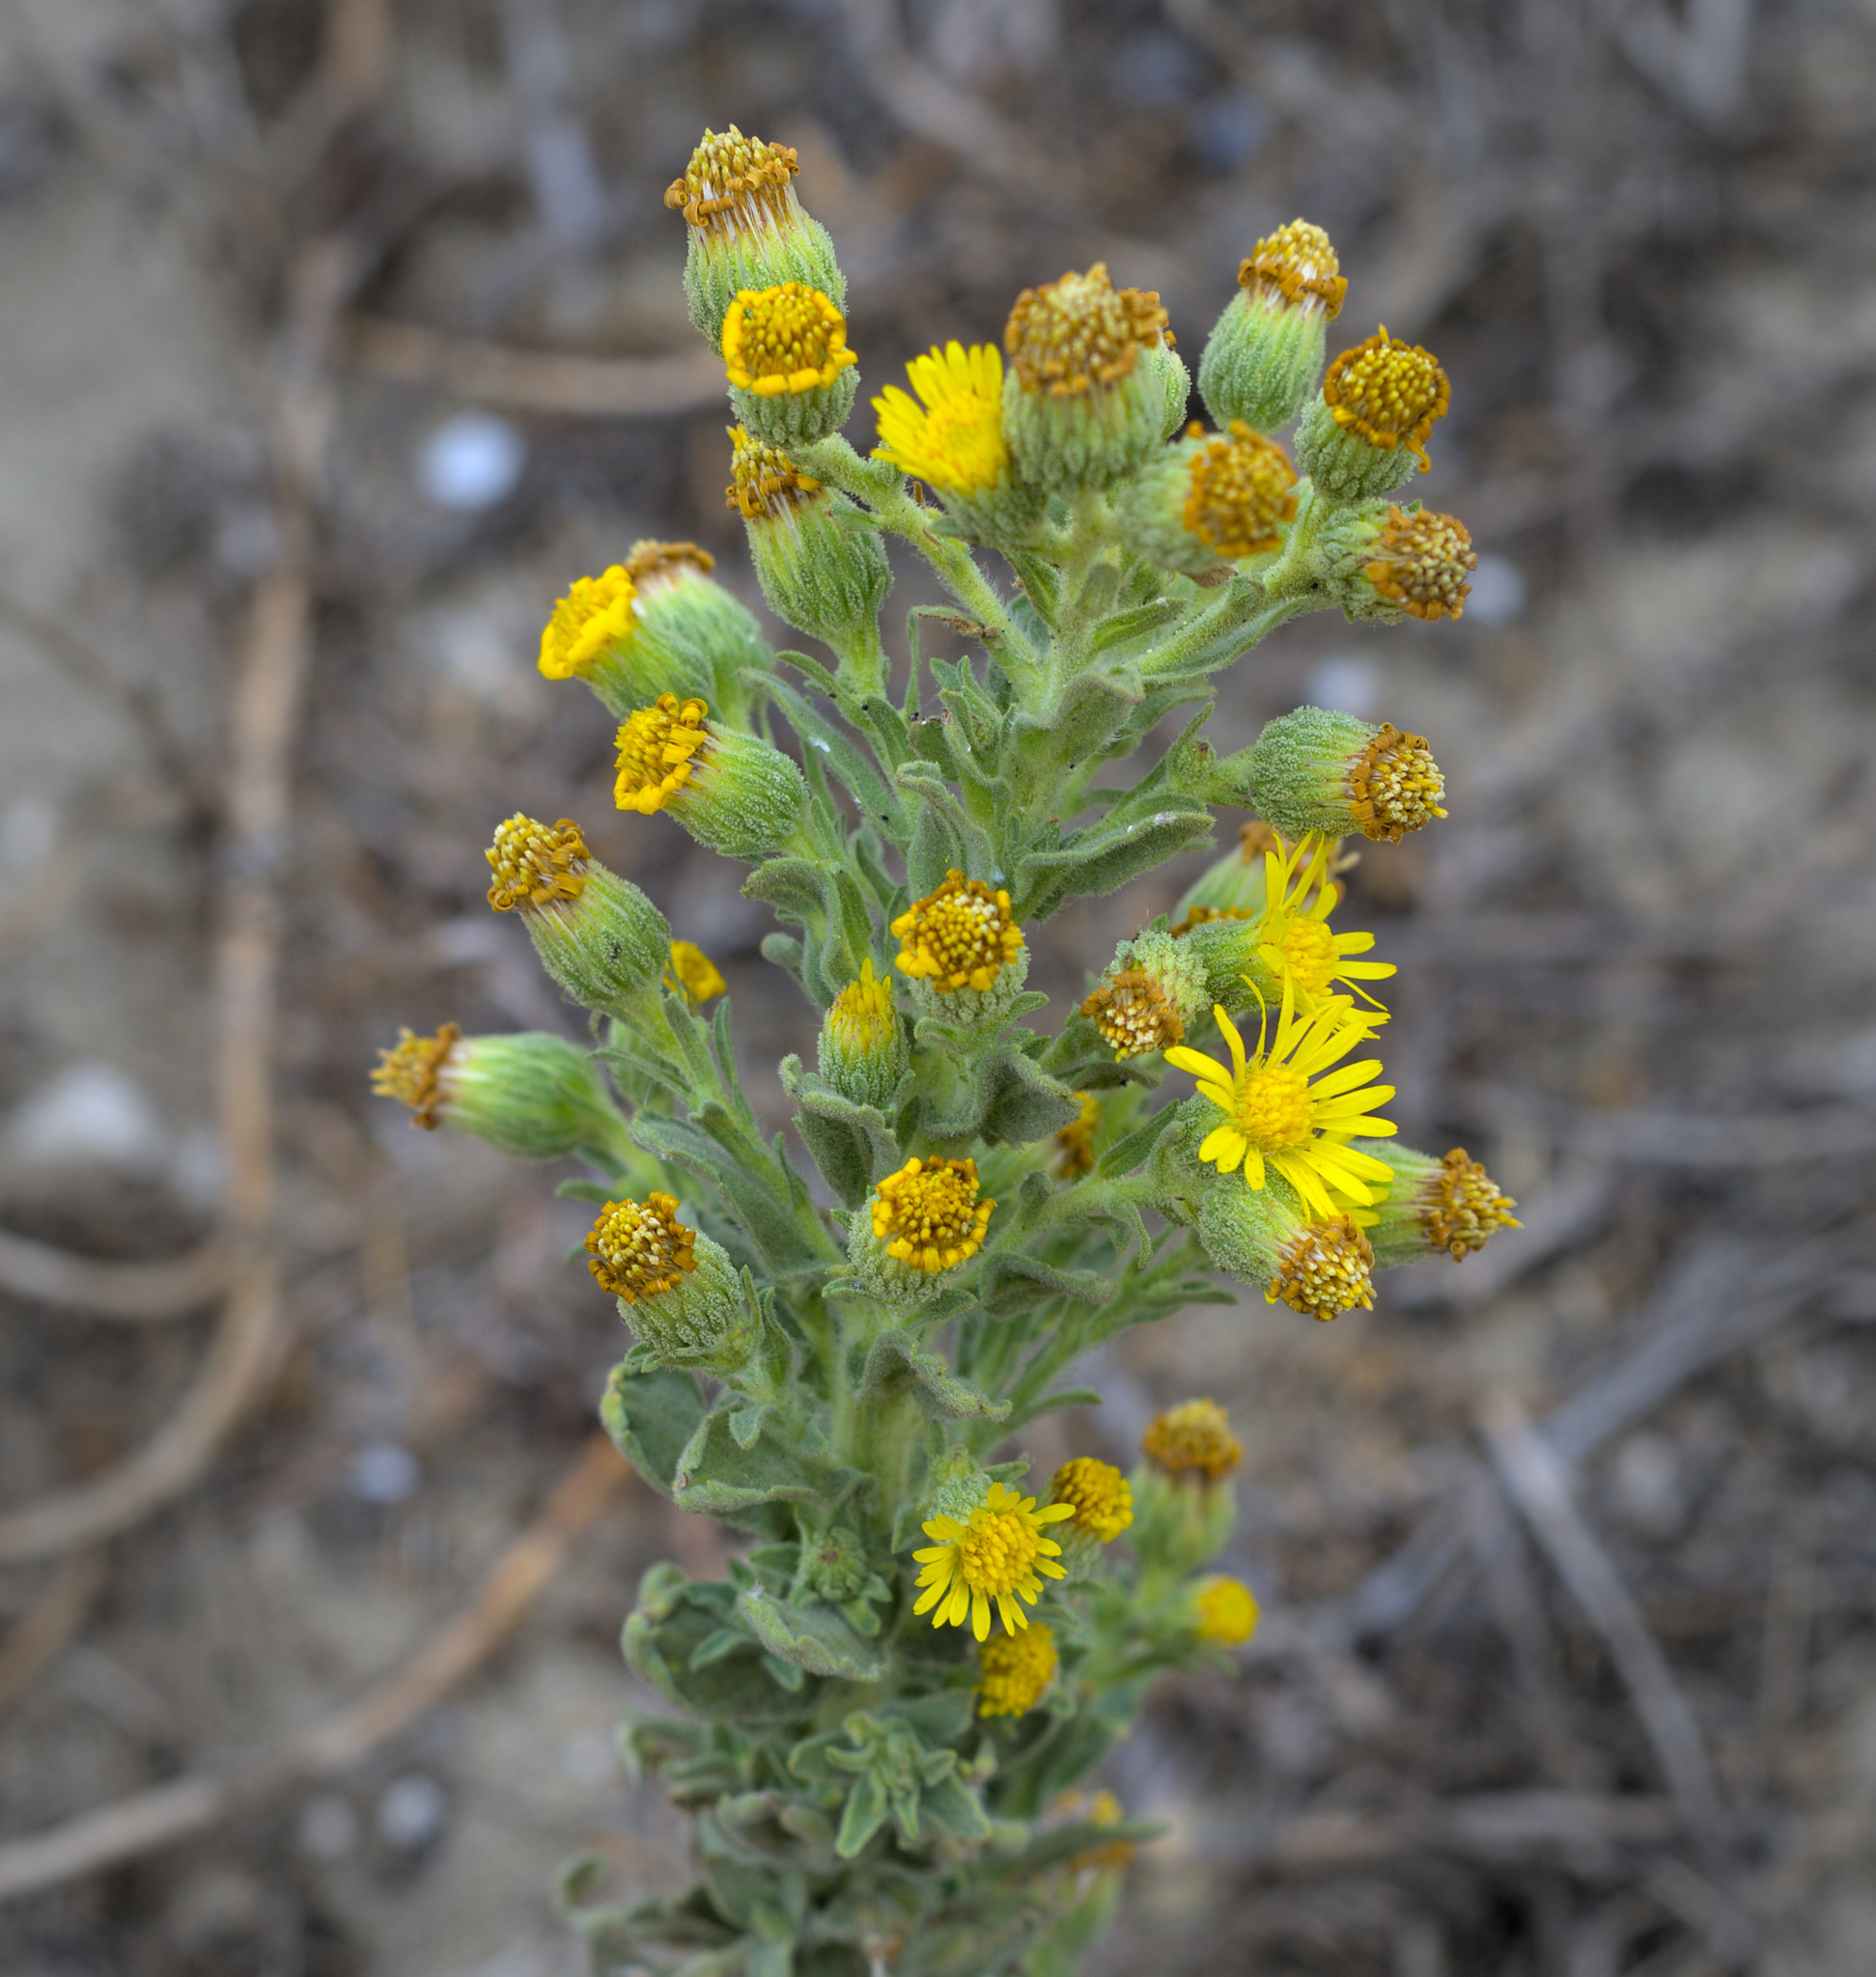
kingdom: Plantae
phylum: Tracheophyta
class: Magnoliopsida
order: Asterales
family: Asteraceae
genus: Heterotheca
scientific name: Heterotheca grandiflora
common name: Telegraphweed
